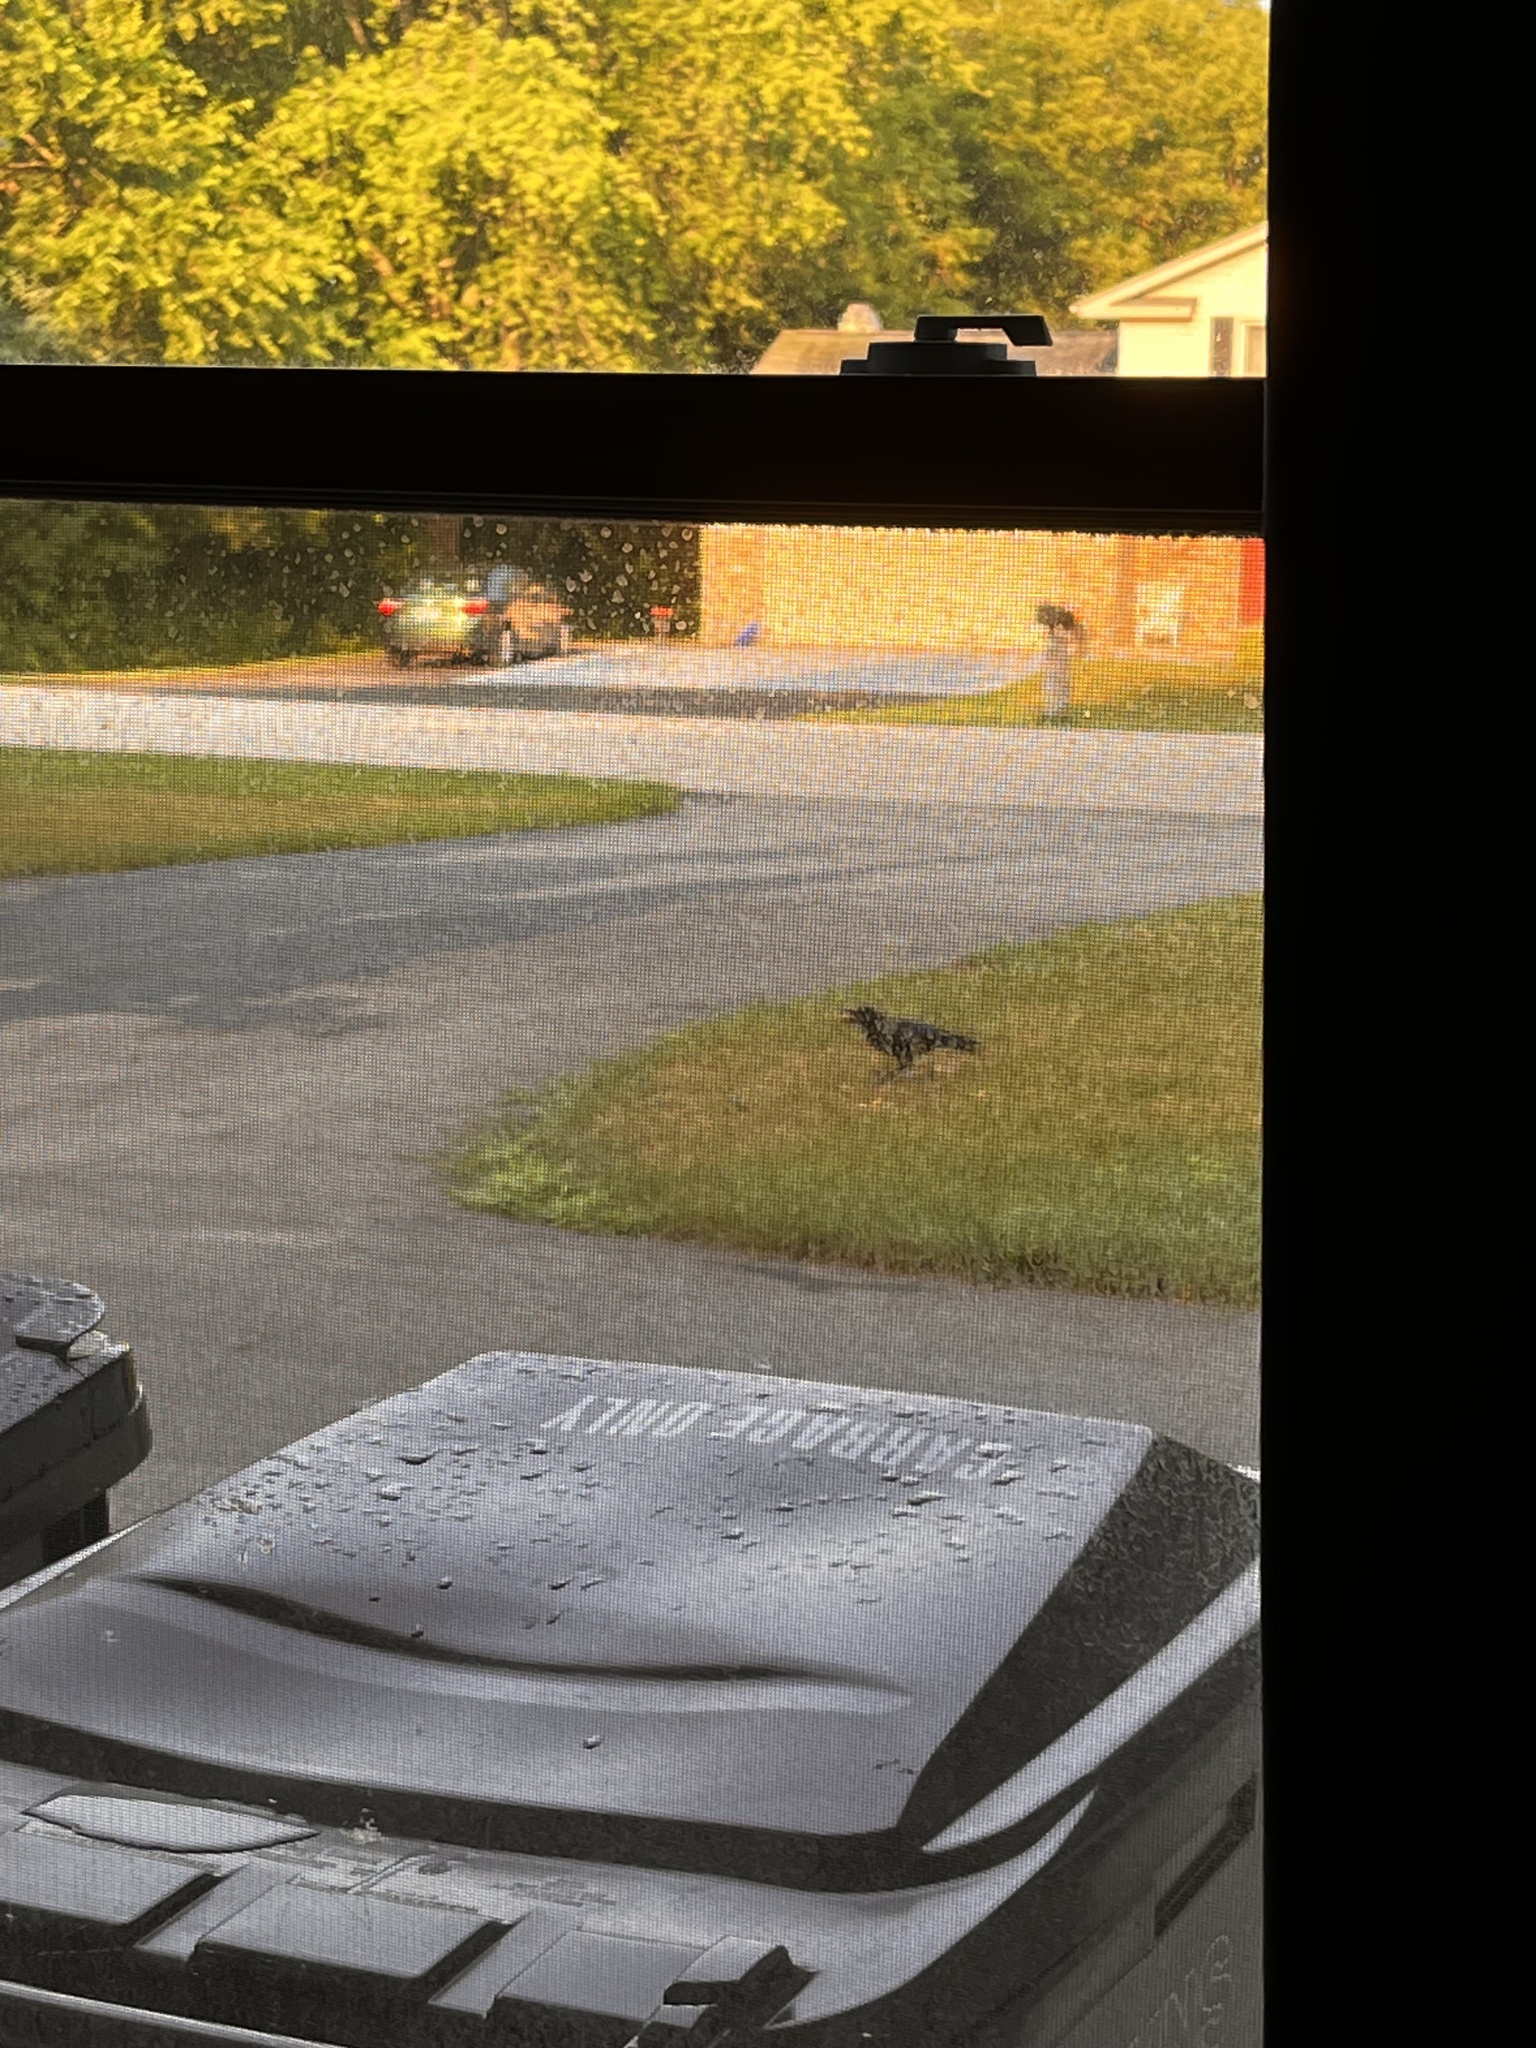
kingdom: Animalia
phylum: Chordata
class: Aves
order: Passeriformes
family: Corvidae
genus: Corvus
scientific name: Corvus brachyrhynchos
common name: American crow
